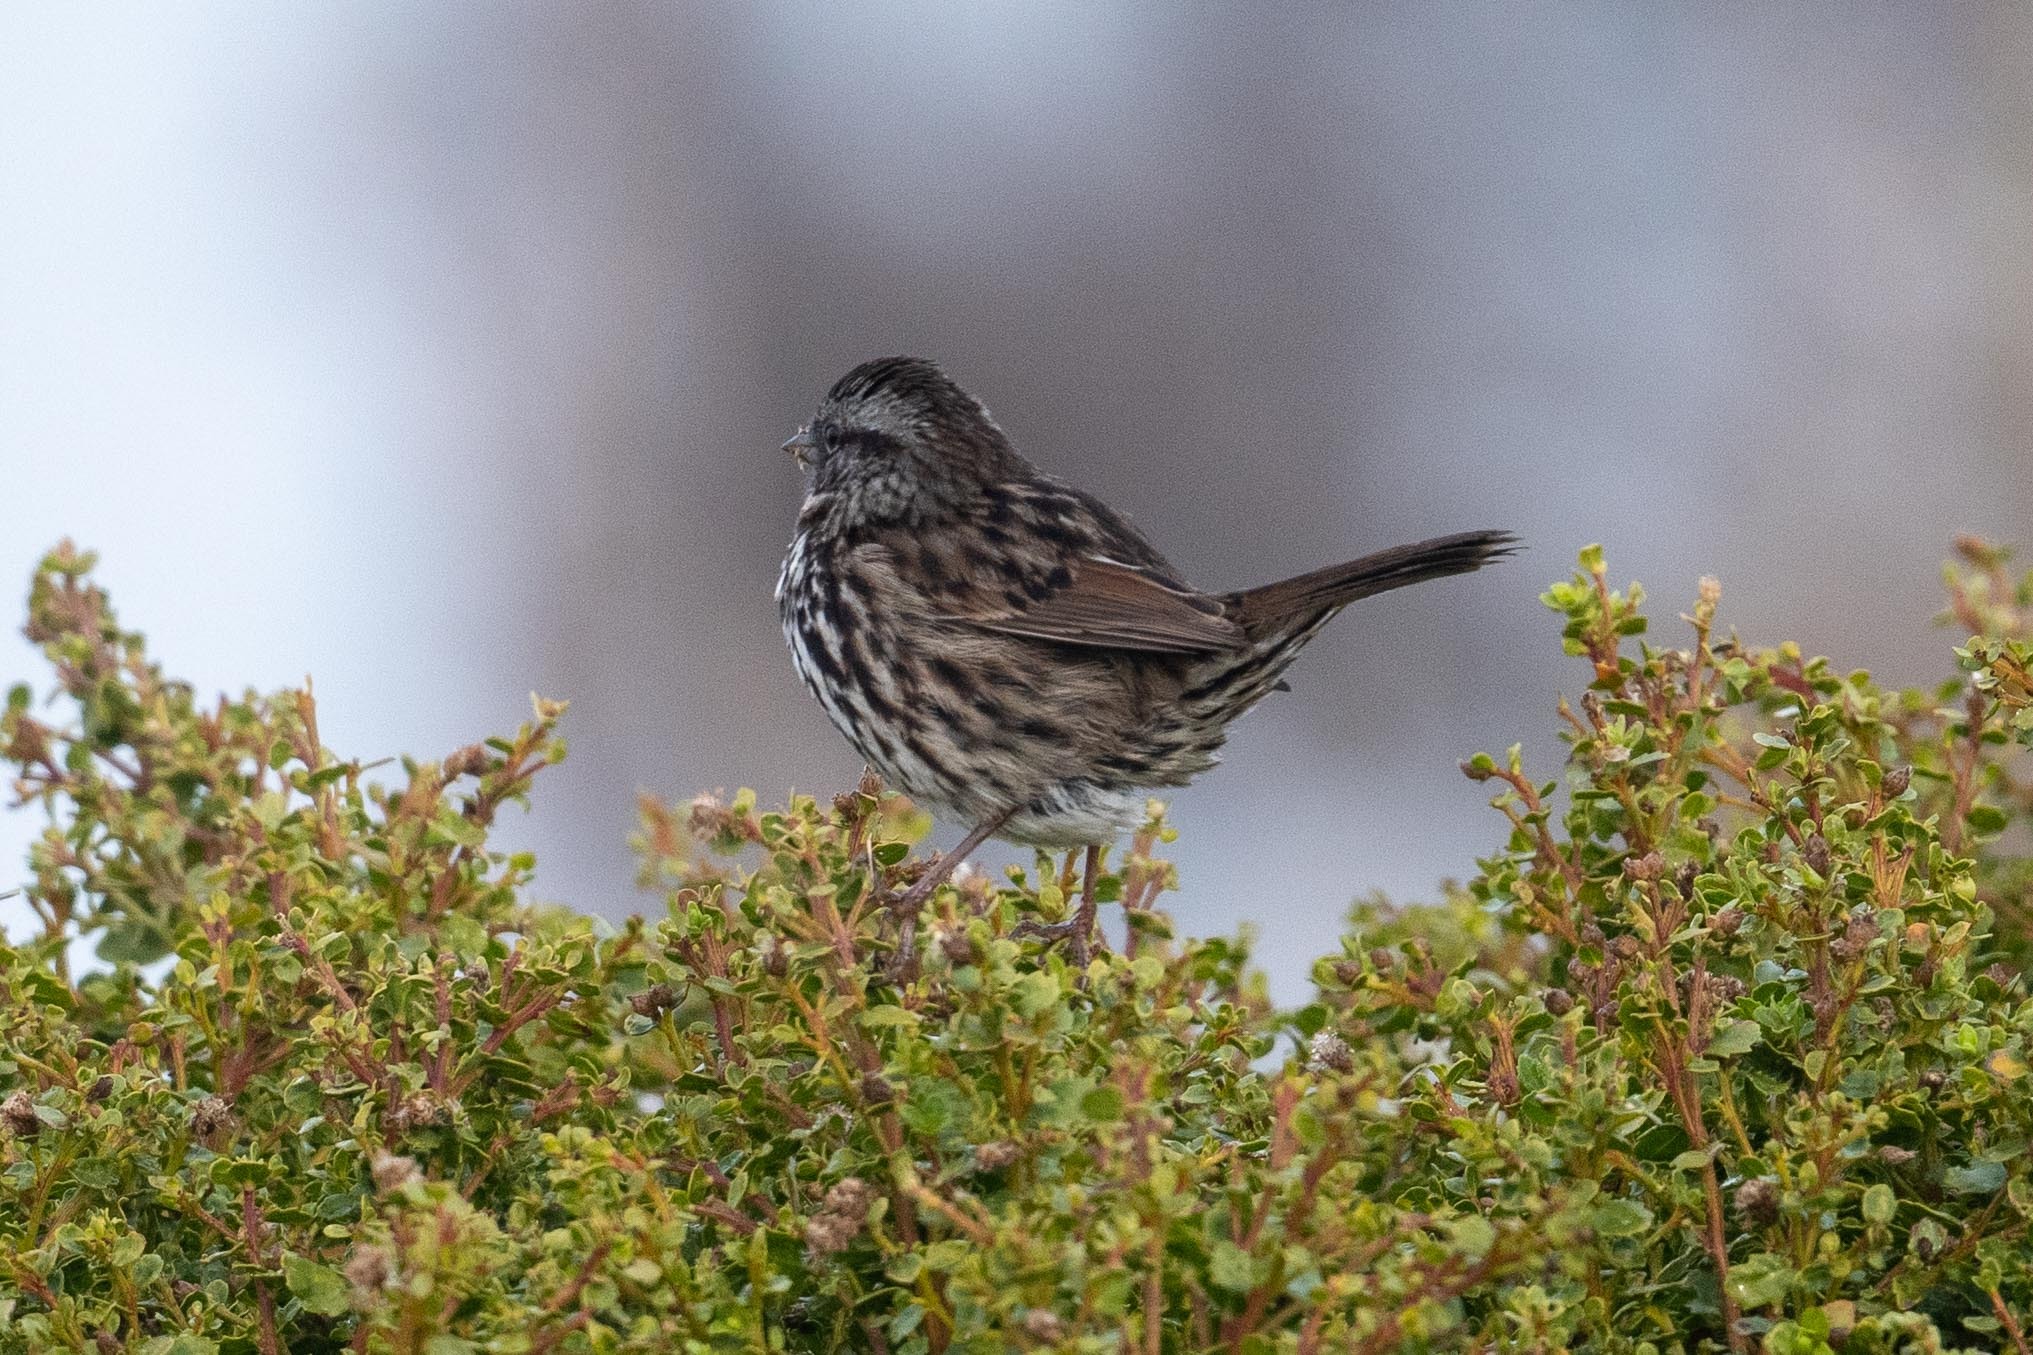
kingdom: Animalia
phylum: Chordata
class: Aves
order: Passeriformes
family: Passerellidae
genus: Melospiza
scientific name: Melospiza melodia
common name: Song sparrow
